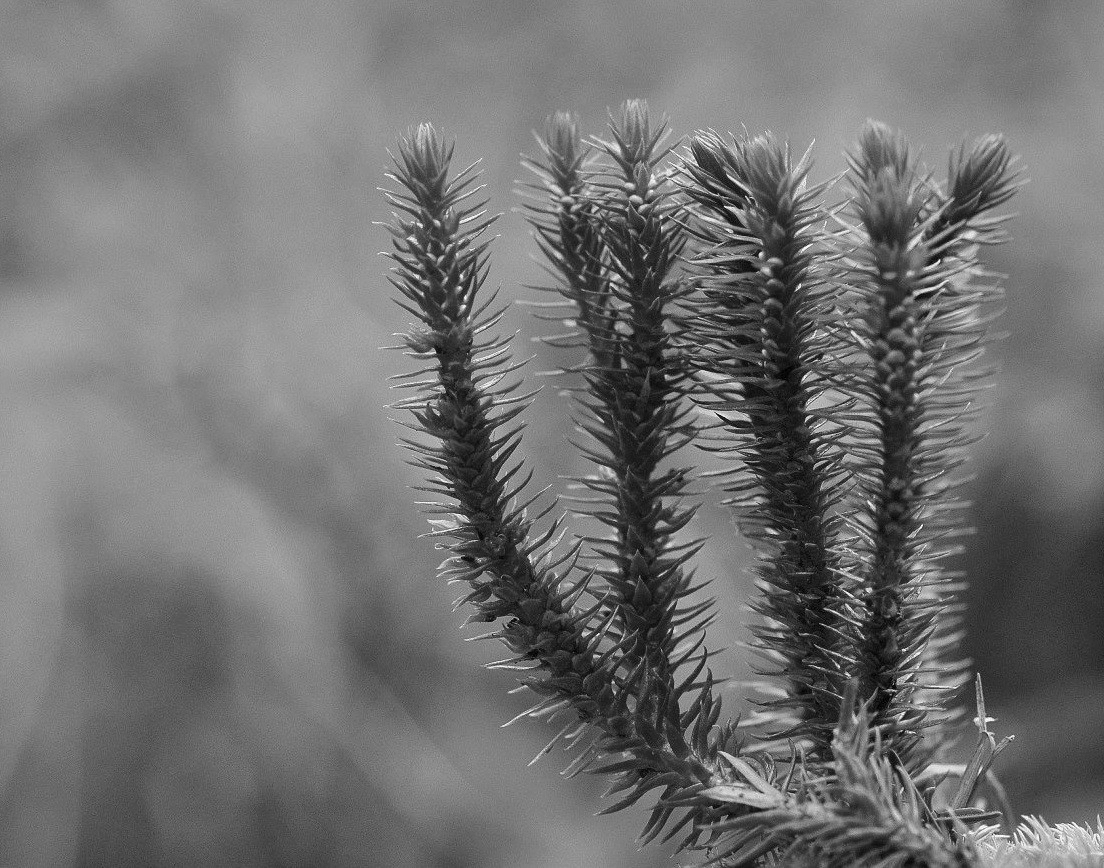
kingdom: Plantae
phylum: Tracheophyta
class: Lycopodiopsida
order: Lycopodiales
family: Lycopodiaceae
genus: Huperzia
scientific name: Huperzia selago
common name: Northern firmoss
